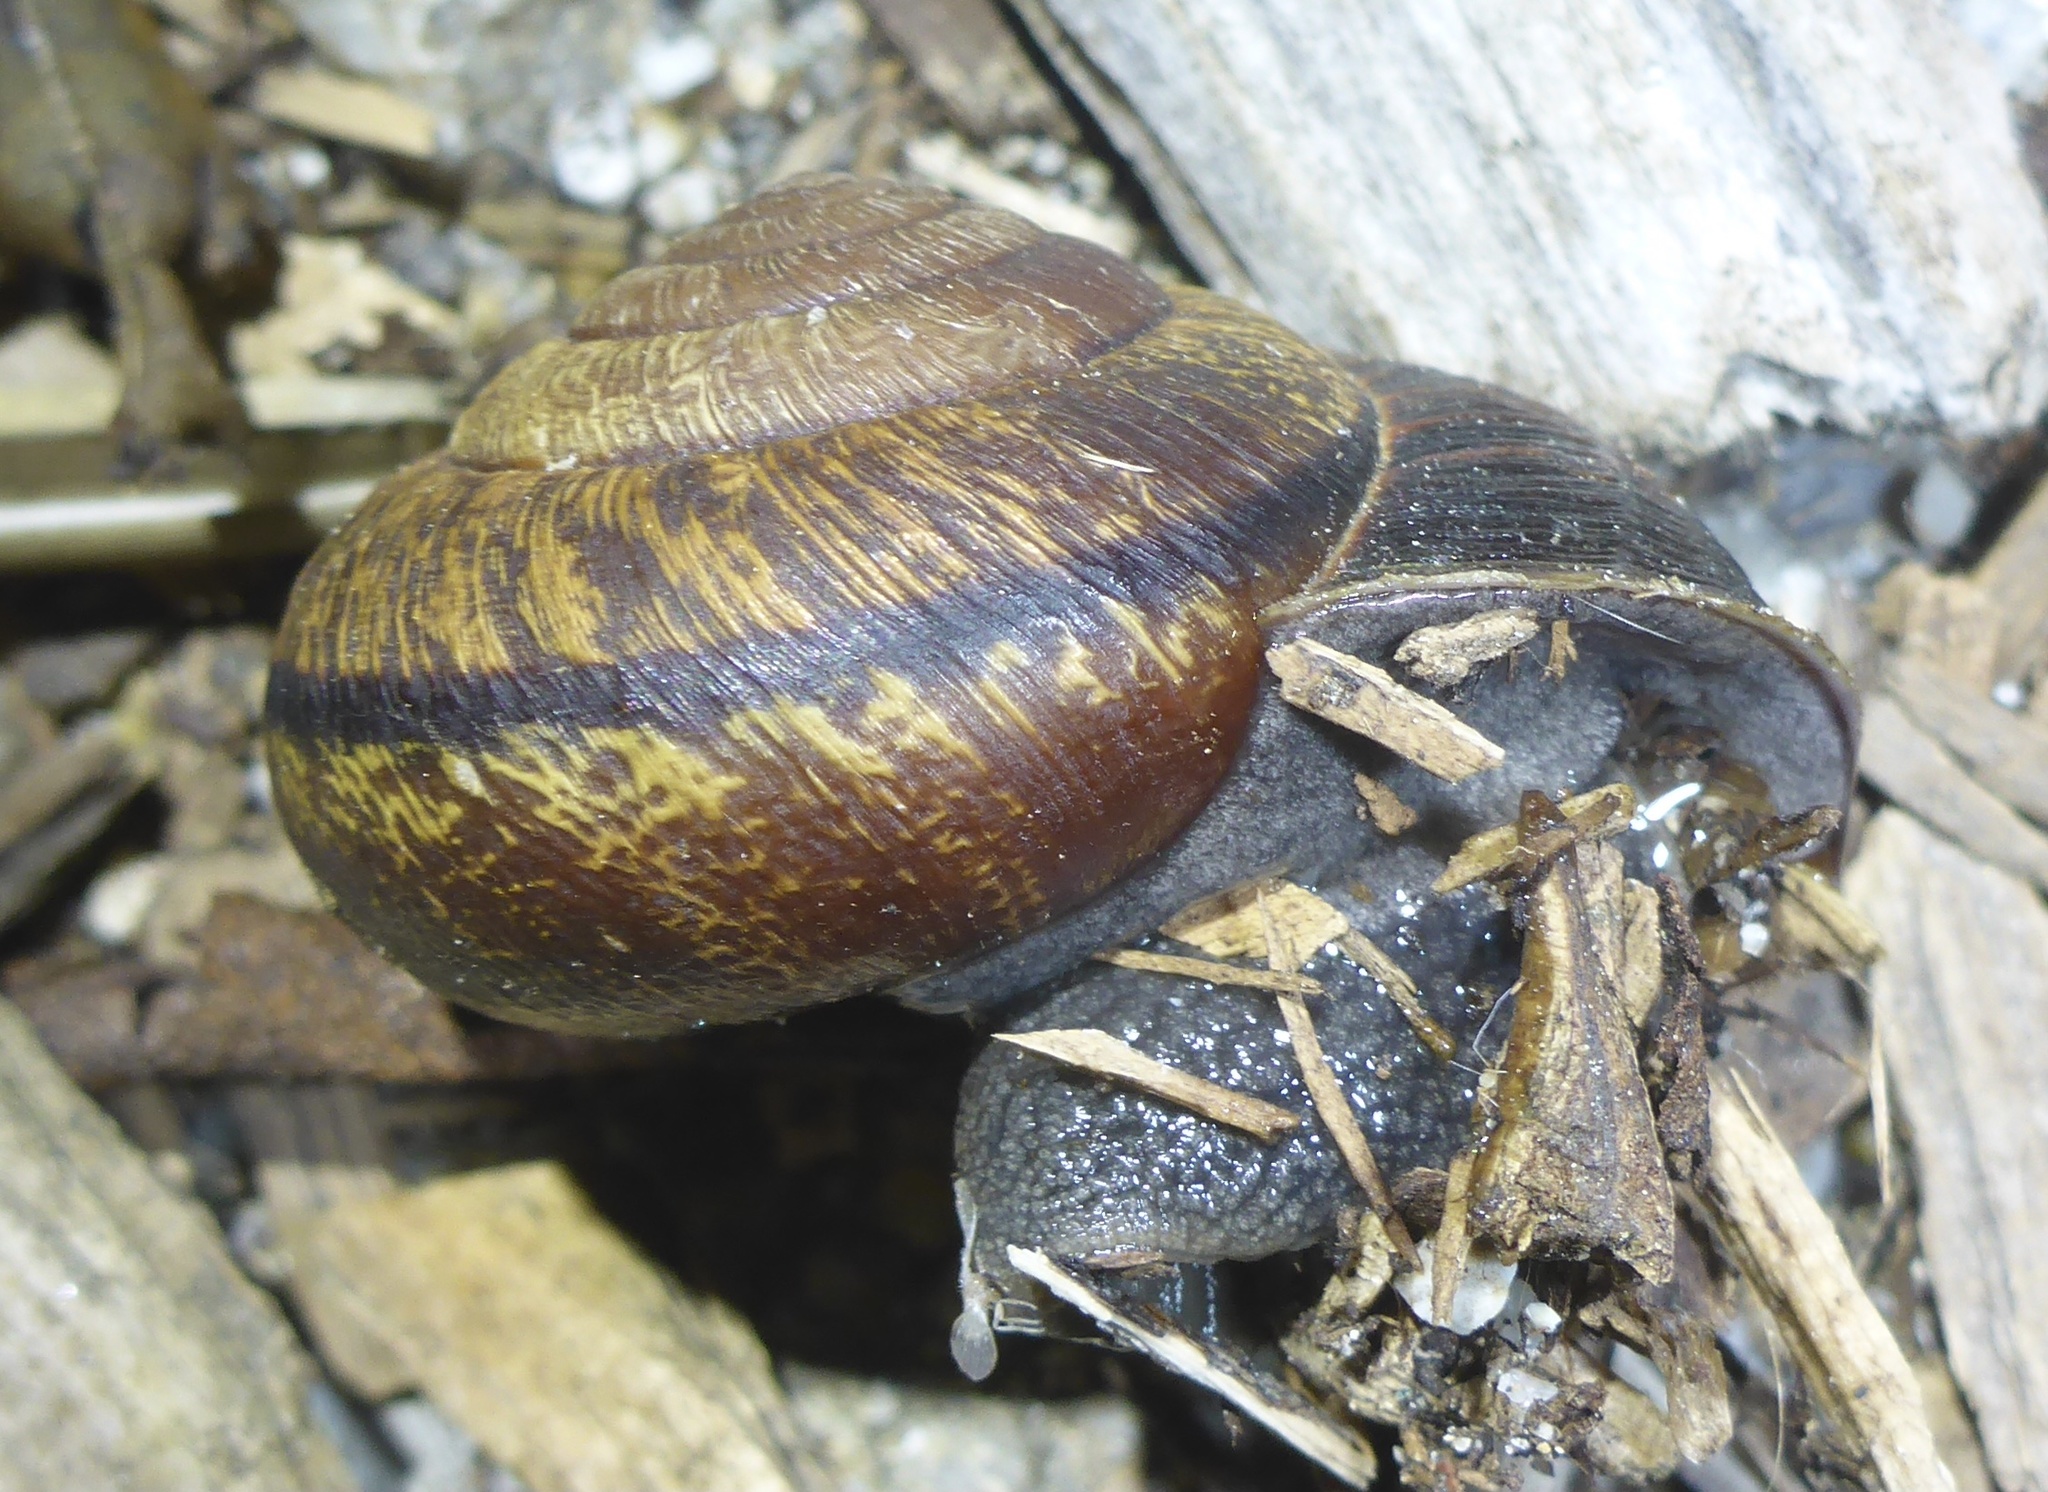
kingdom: Animalia
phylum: Mollusca
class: Gastropoda
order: Stylommatophora
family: Xanthonychidae
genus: Helminthoglypta
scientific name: Helminthoglypta arrosa
